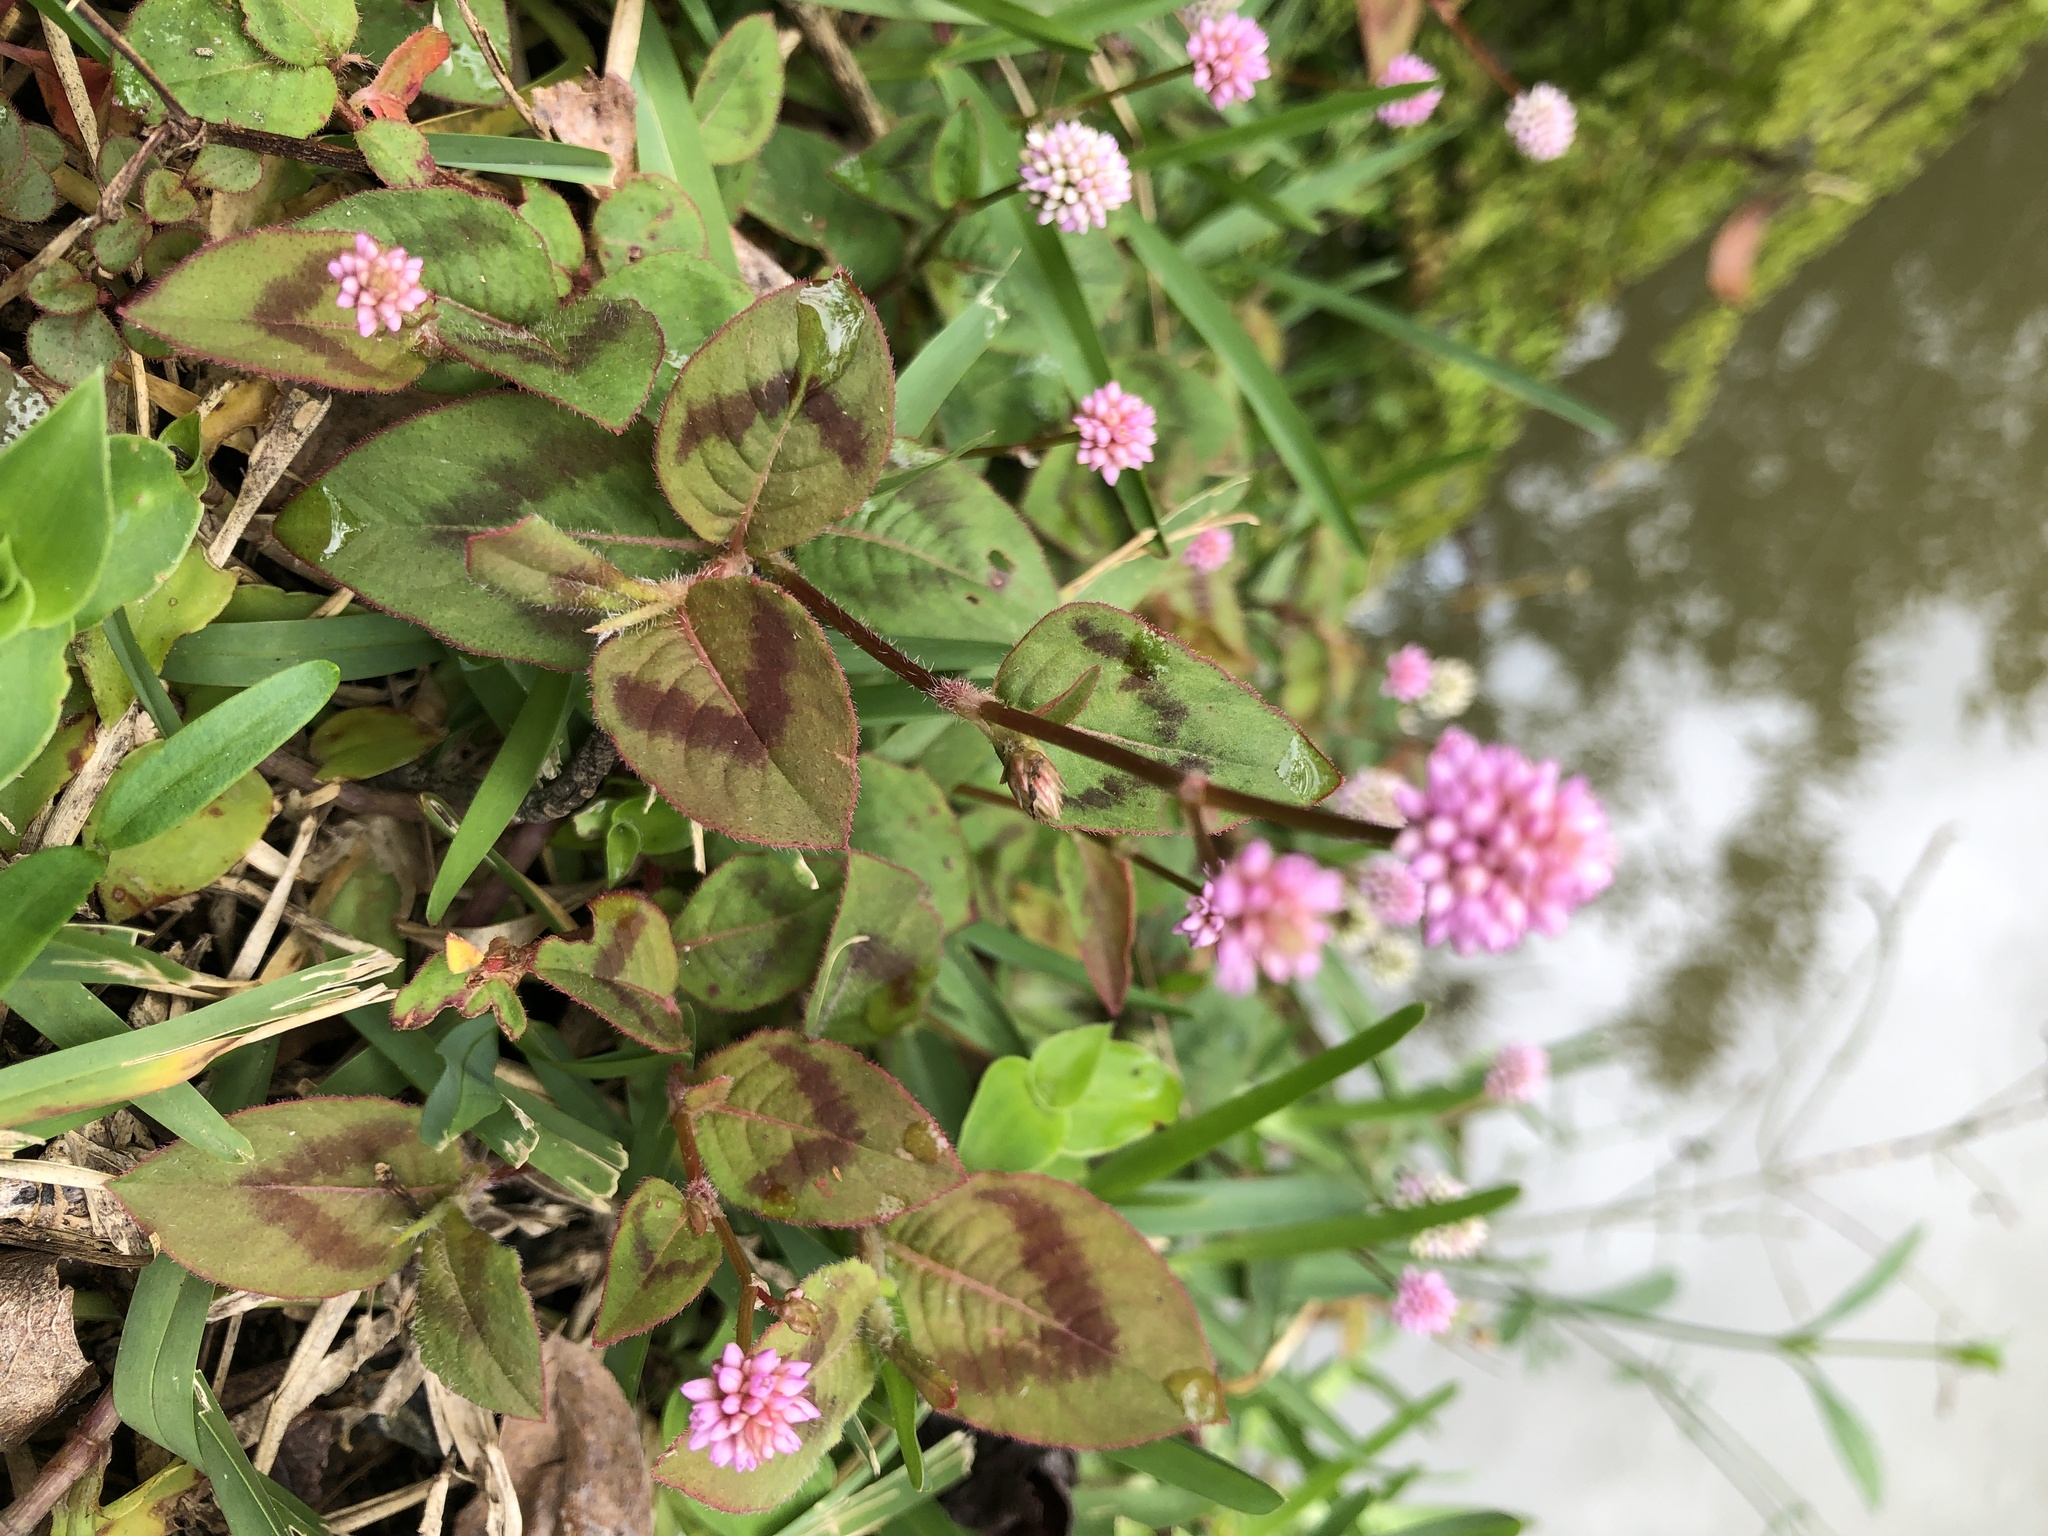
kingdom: Plantae
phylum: Tracheophyta
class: Magnoliopsida
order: Caryophyllales
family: Polygonaceae
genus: Persicaria
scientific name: Persicaria capitata
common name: Pinkhead smartweed
